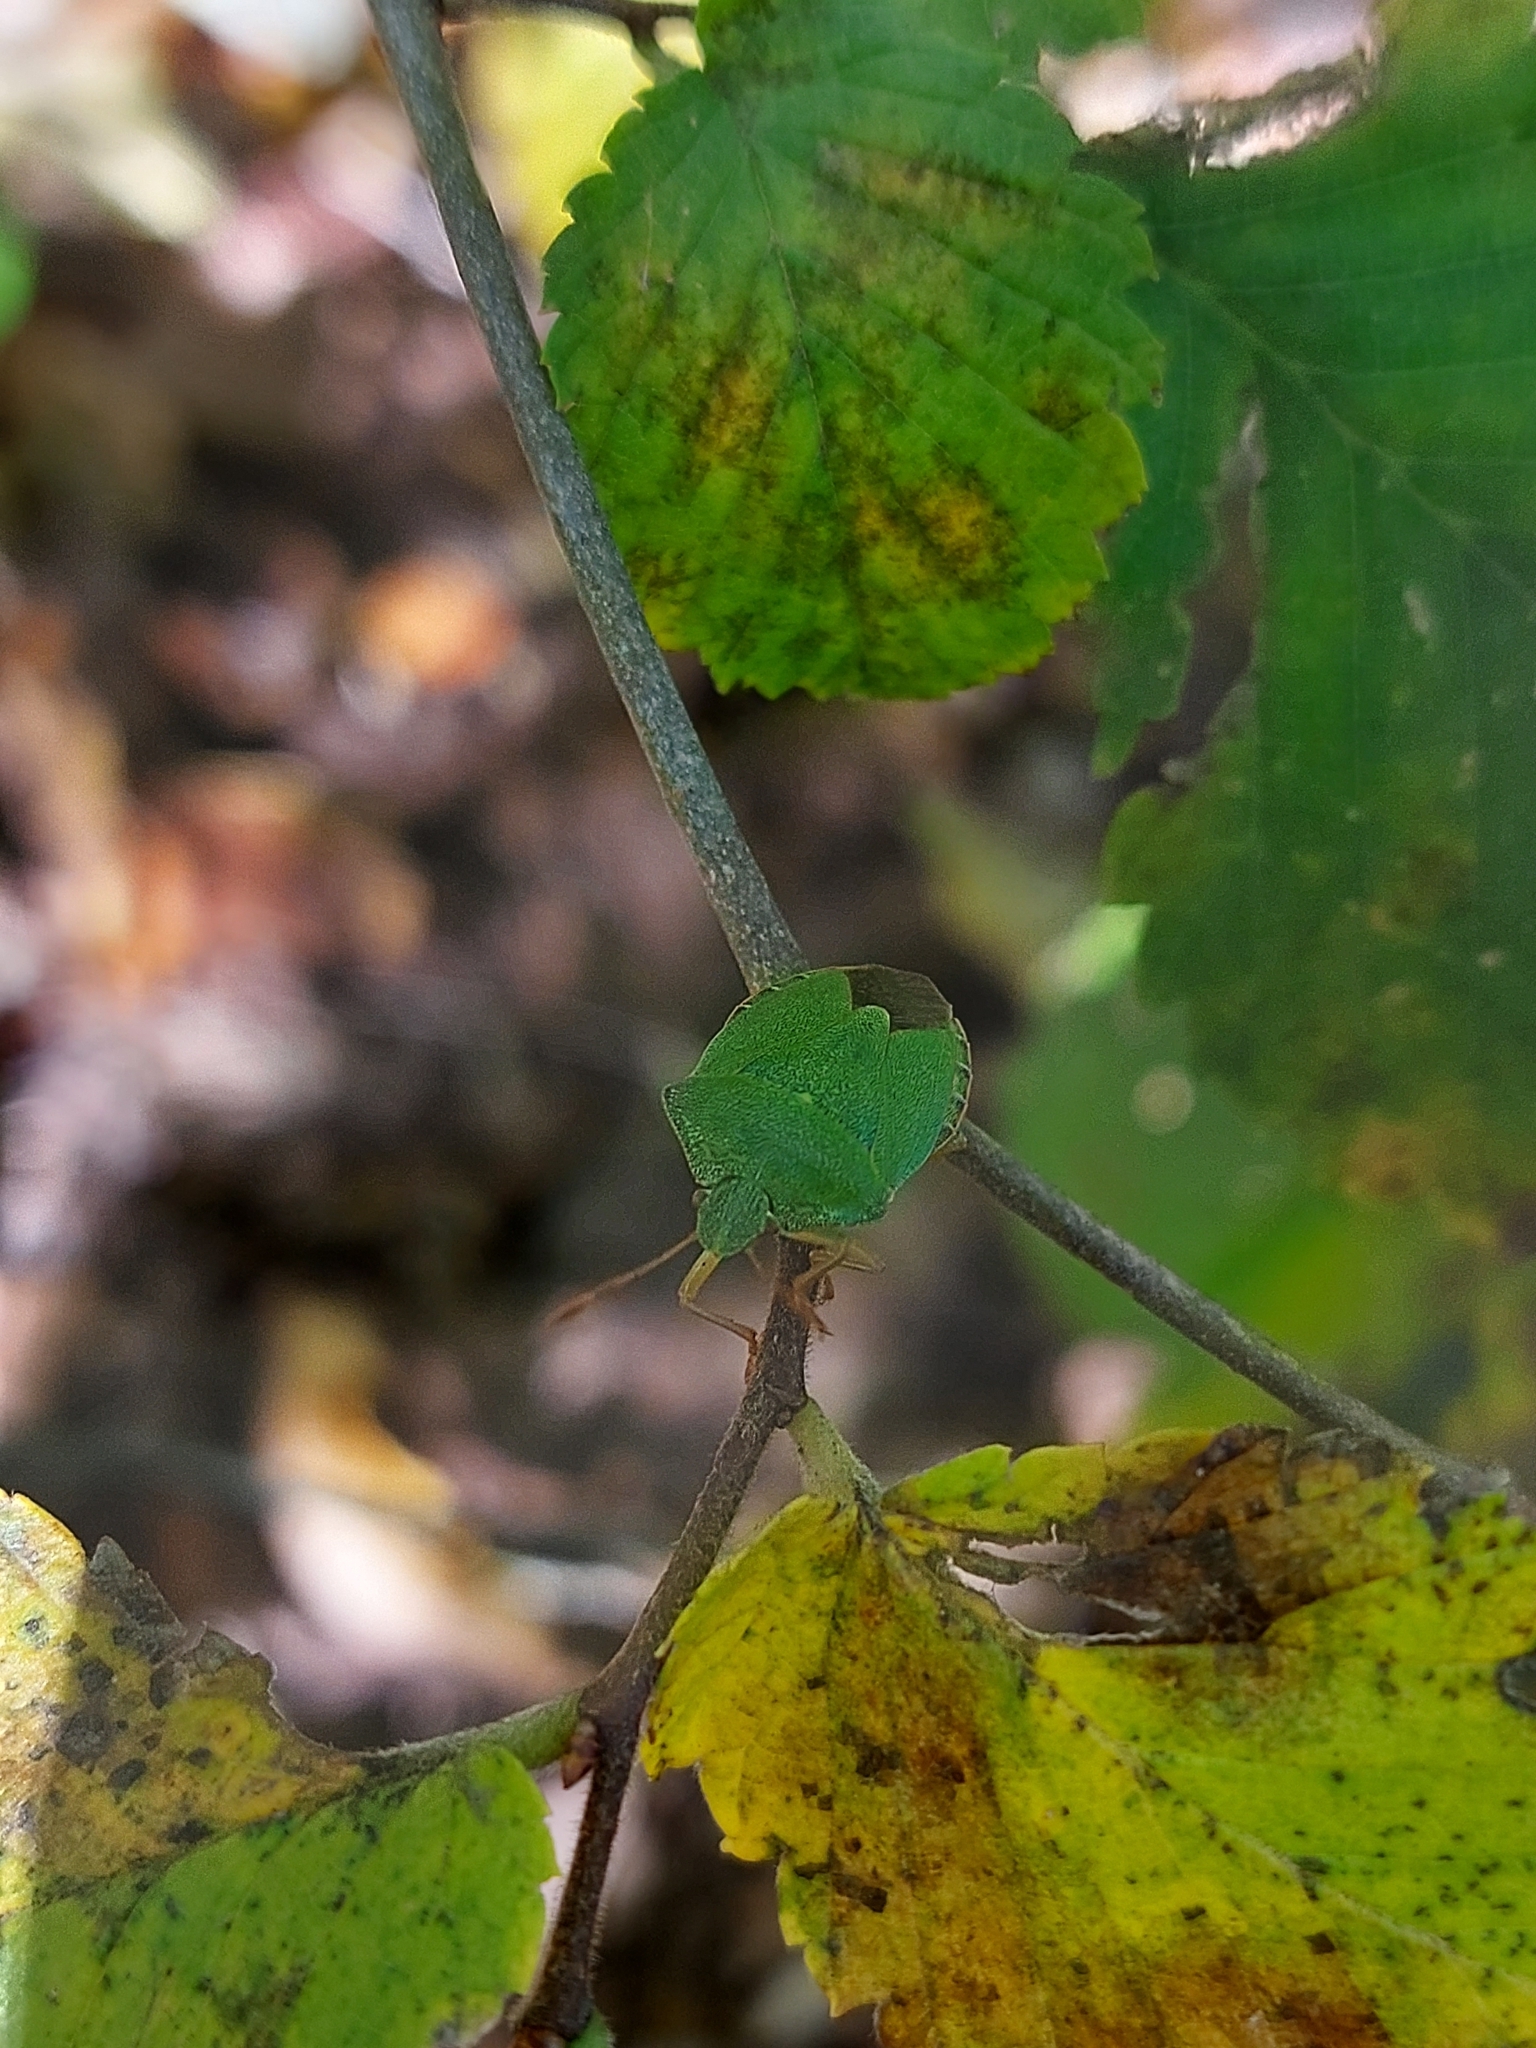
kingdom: Animalia
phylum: Arthropoda
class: Insecta
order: Hemiptera
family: Pentatomidae
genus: Palomena
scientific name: Palomena prasina
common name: Green shieldbug
